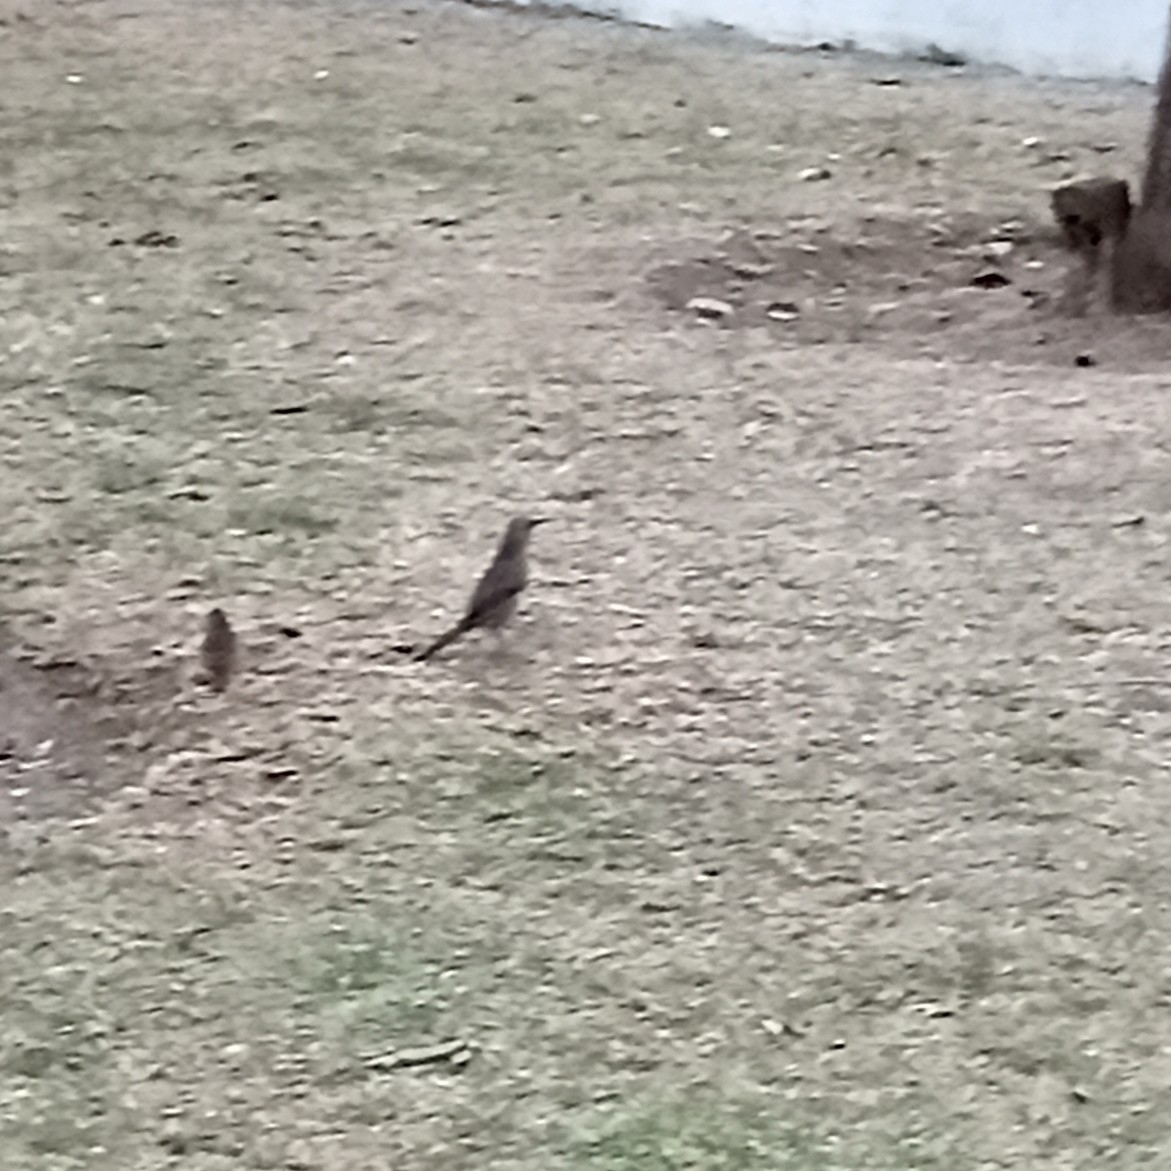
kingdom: Animalia
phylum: Chordata
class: Aves
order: Passeriformes
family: Mimidae
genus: Toxostoma
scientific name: Toxostoma curvirostre
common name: Curve-billed thrasher
